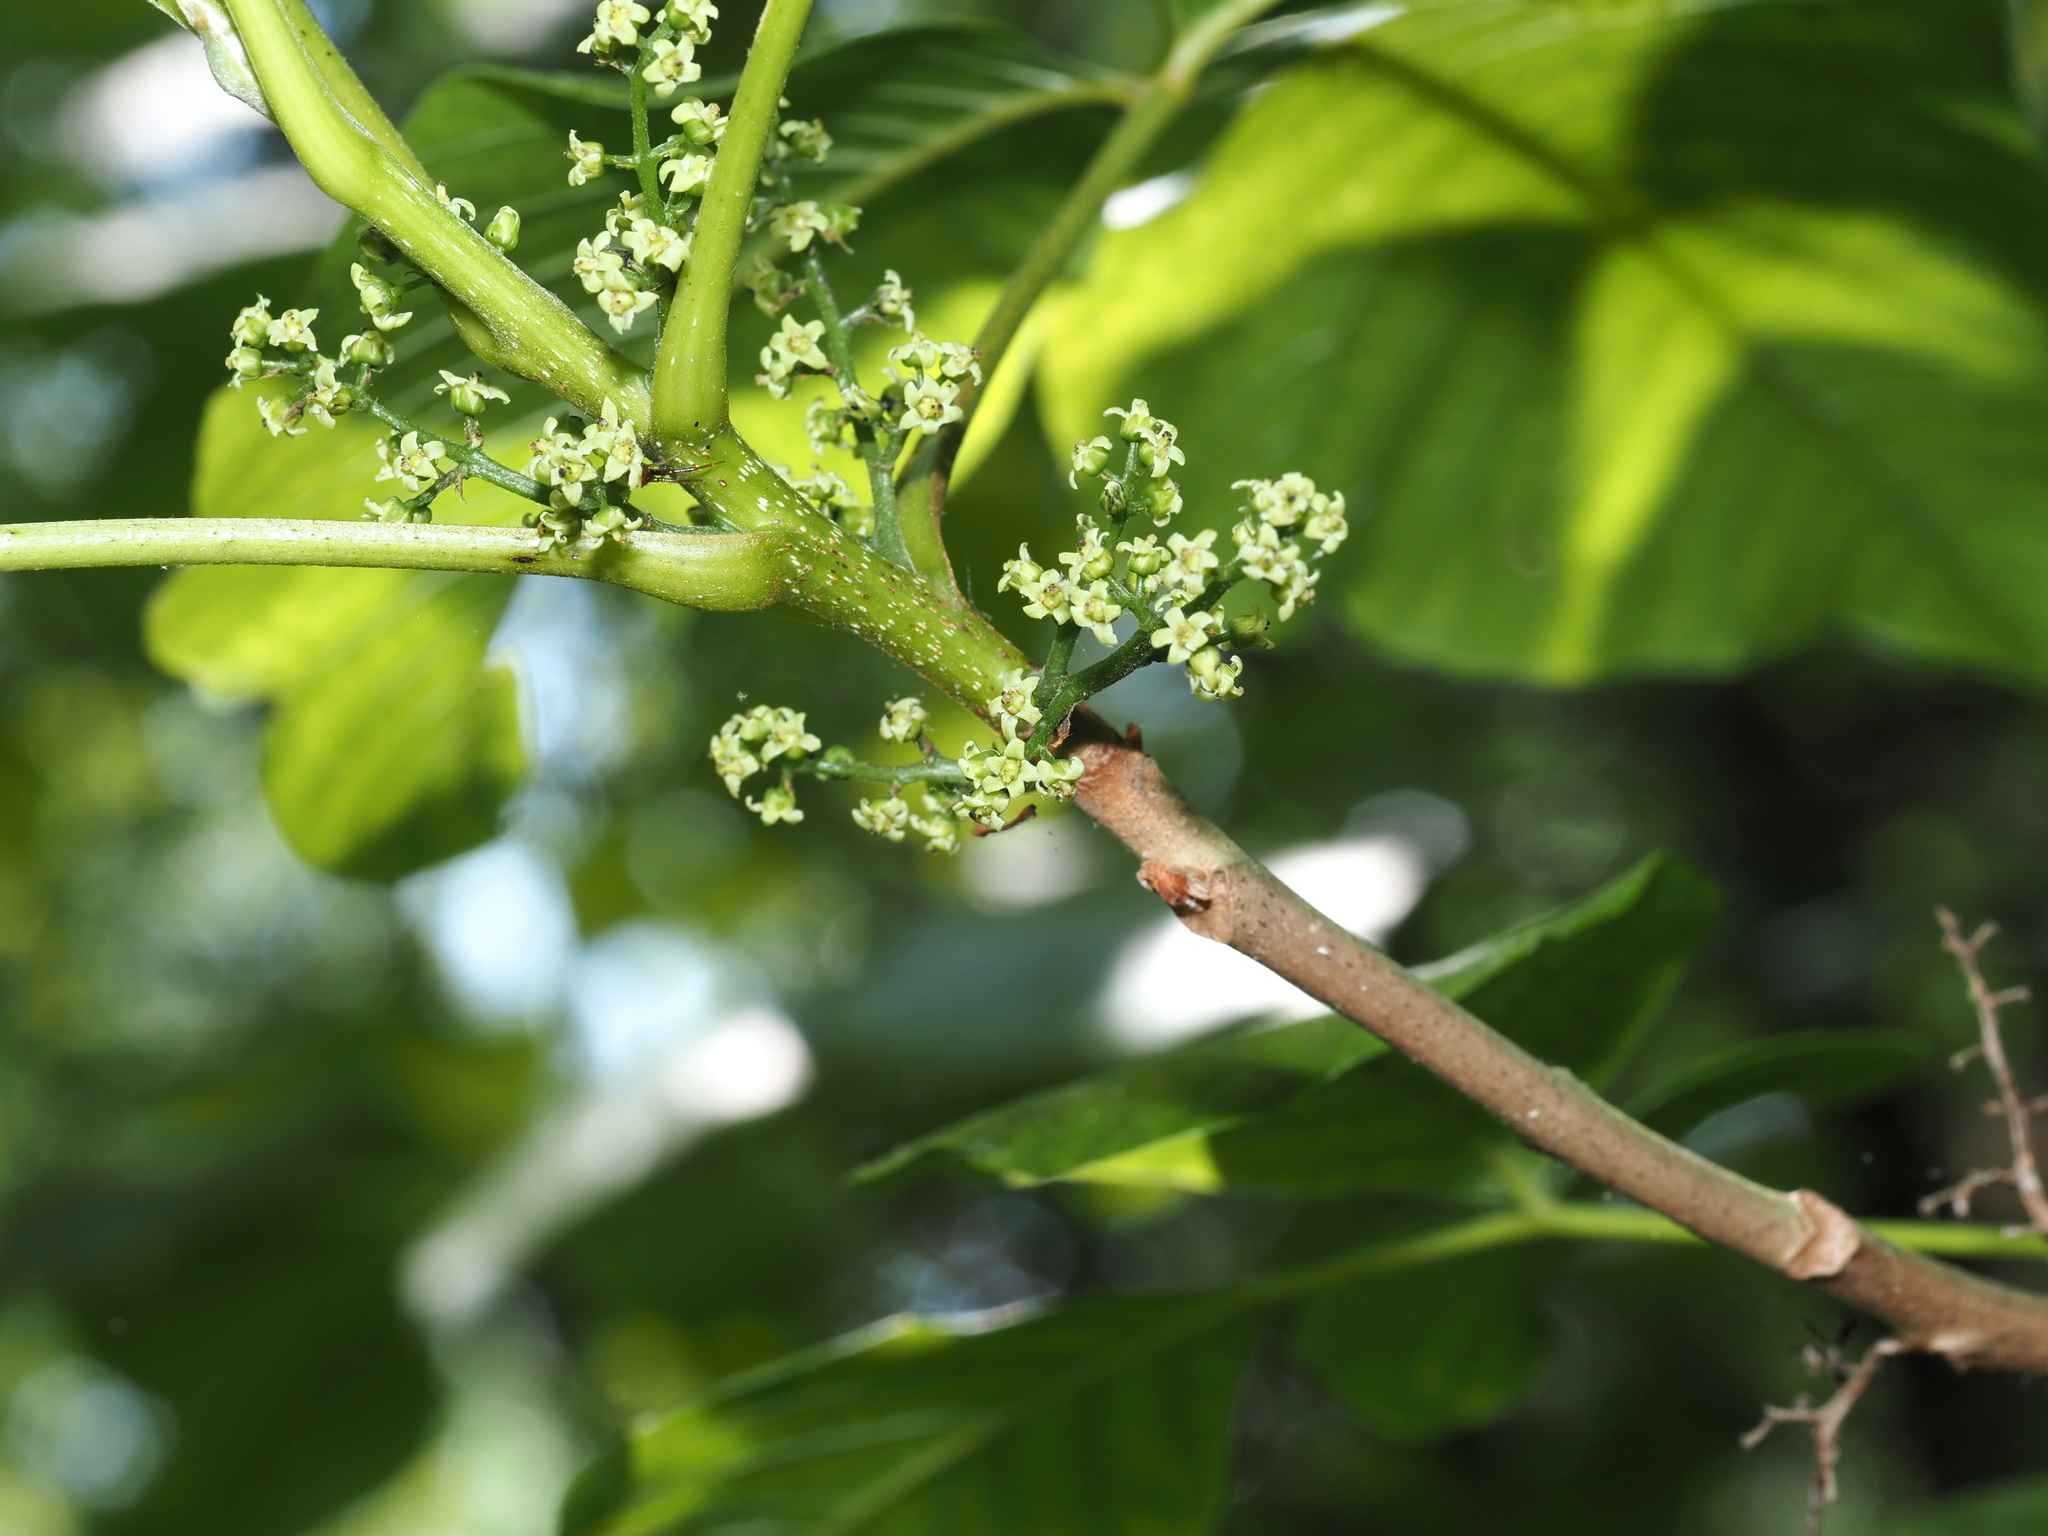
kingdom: Plantae
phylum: Tracheophyta
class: Magnoliopsida
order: Sapindales
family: Anacardiaceae
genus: Toxicodendron
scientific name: Toxicodendron radicans
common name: Poison ivy
